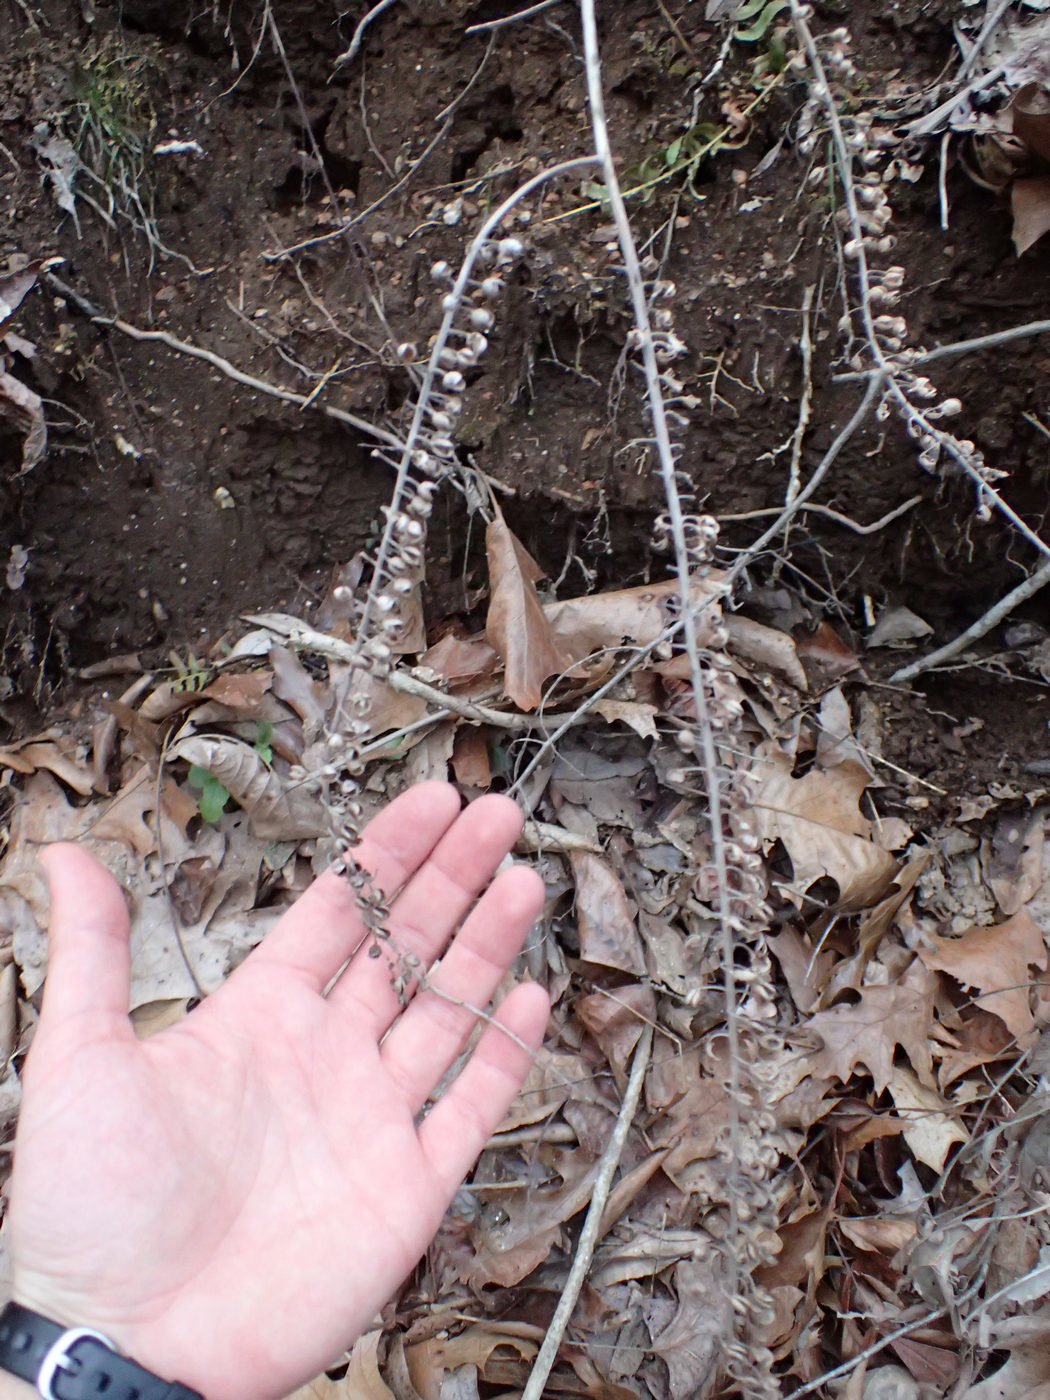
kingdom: Plantae
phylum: Tracheophyta
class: Magnoliopsida
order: Ranunculales
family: Ranunculaceae
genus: Actaea
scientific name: Actaea racemosa
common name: Black cohosh
